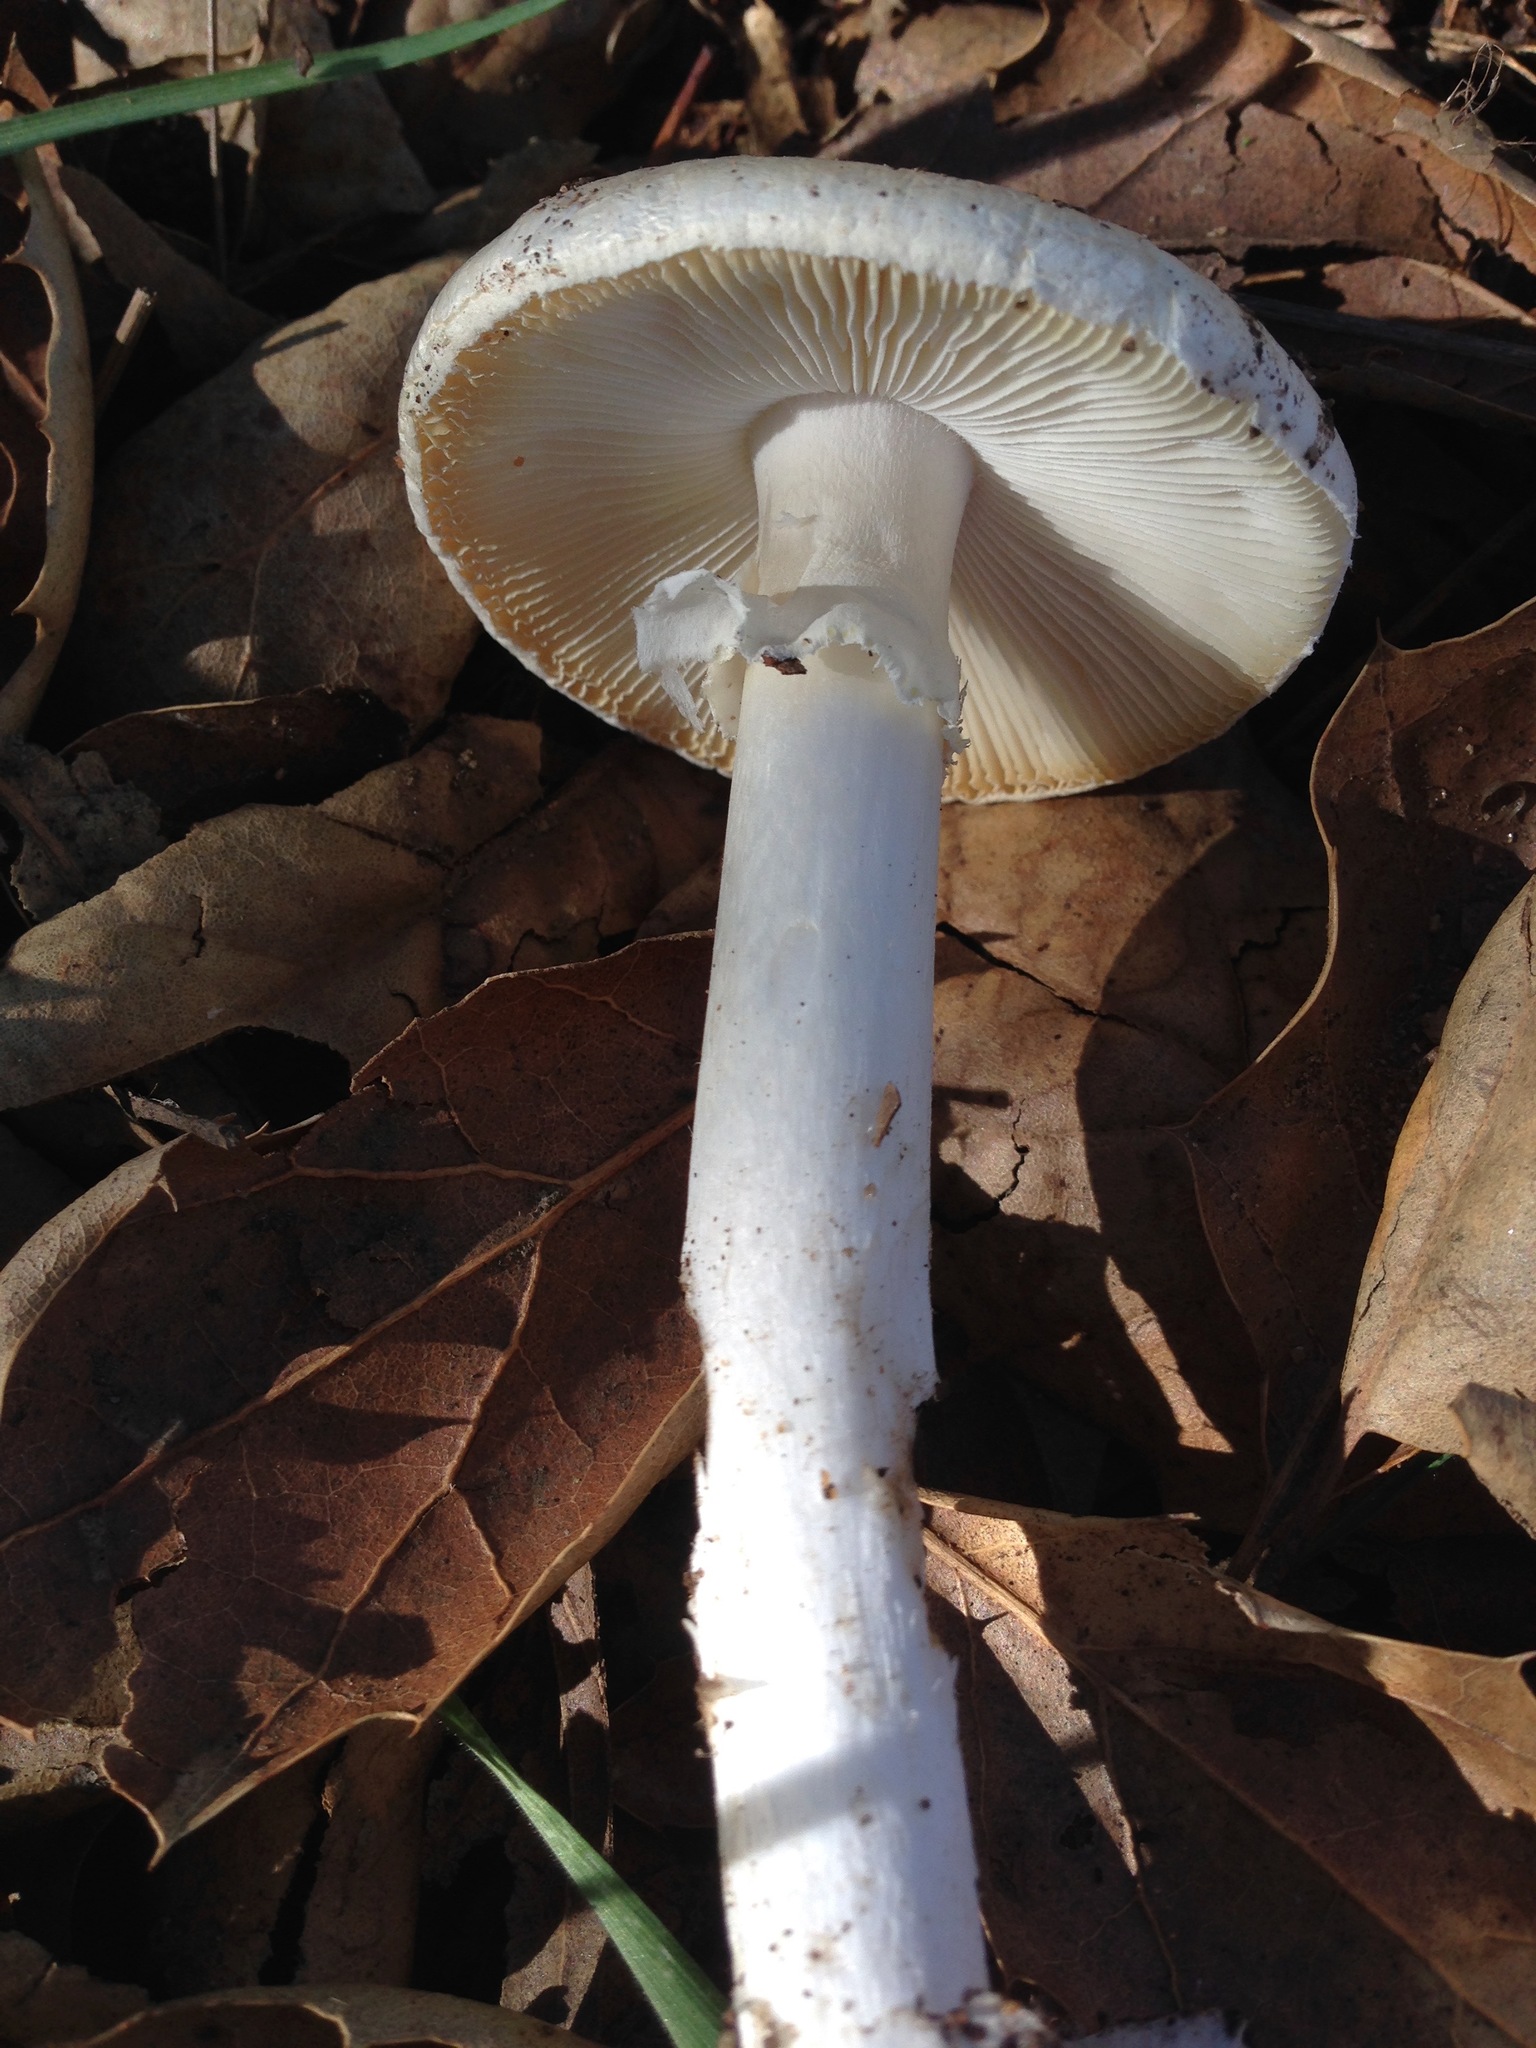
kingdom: Fungi
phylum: Basidiomycota
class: Agaricomycetes
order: Agaricales
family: Amanitaceae
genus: Amanita
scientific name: Amanita velosa
